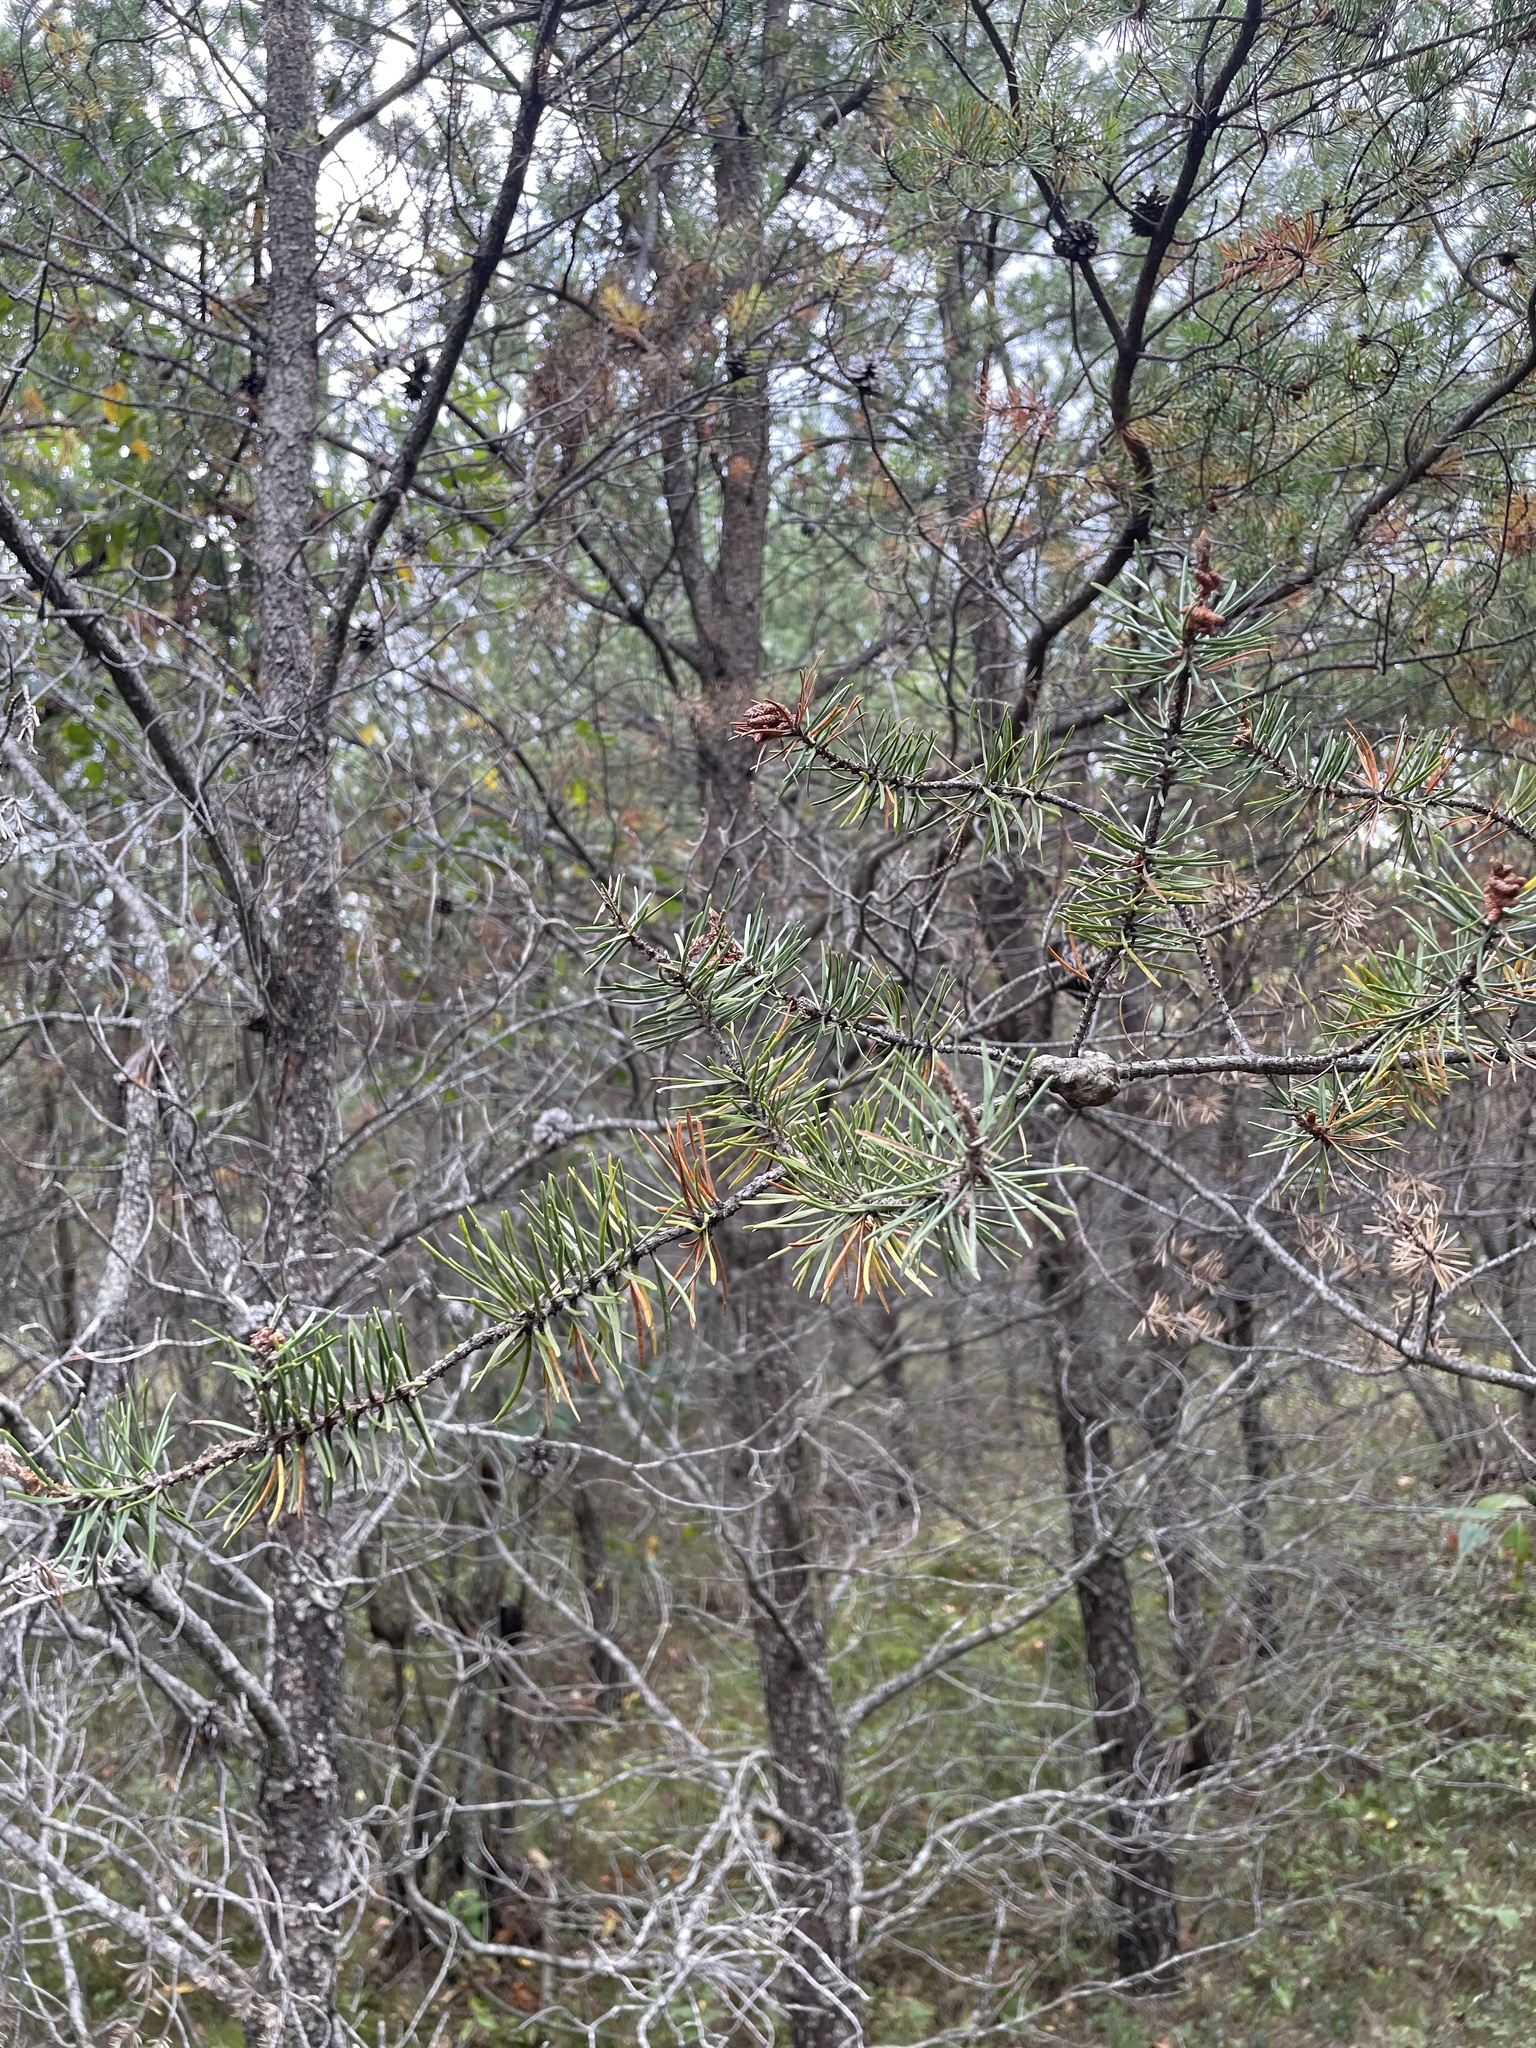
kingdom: Plantae
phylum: Tracheophyta
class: Pinopsida
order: Pinales
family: Pinaceae
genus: Pinus
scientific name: Pinus banksiana
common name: Jack pine
